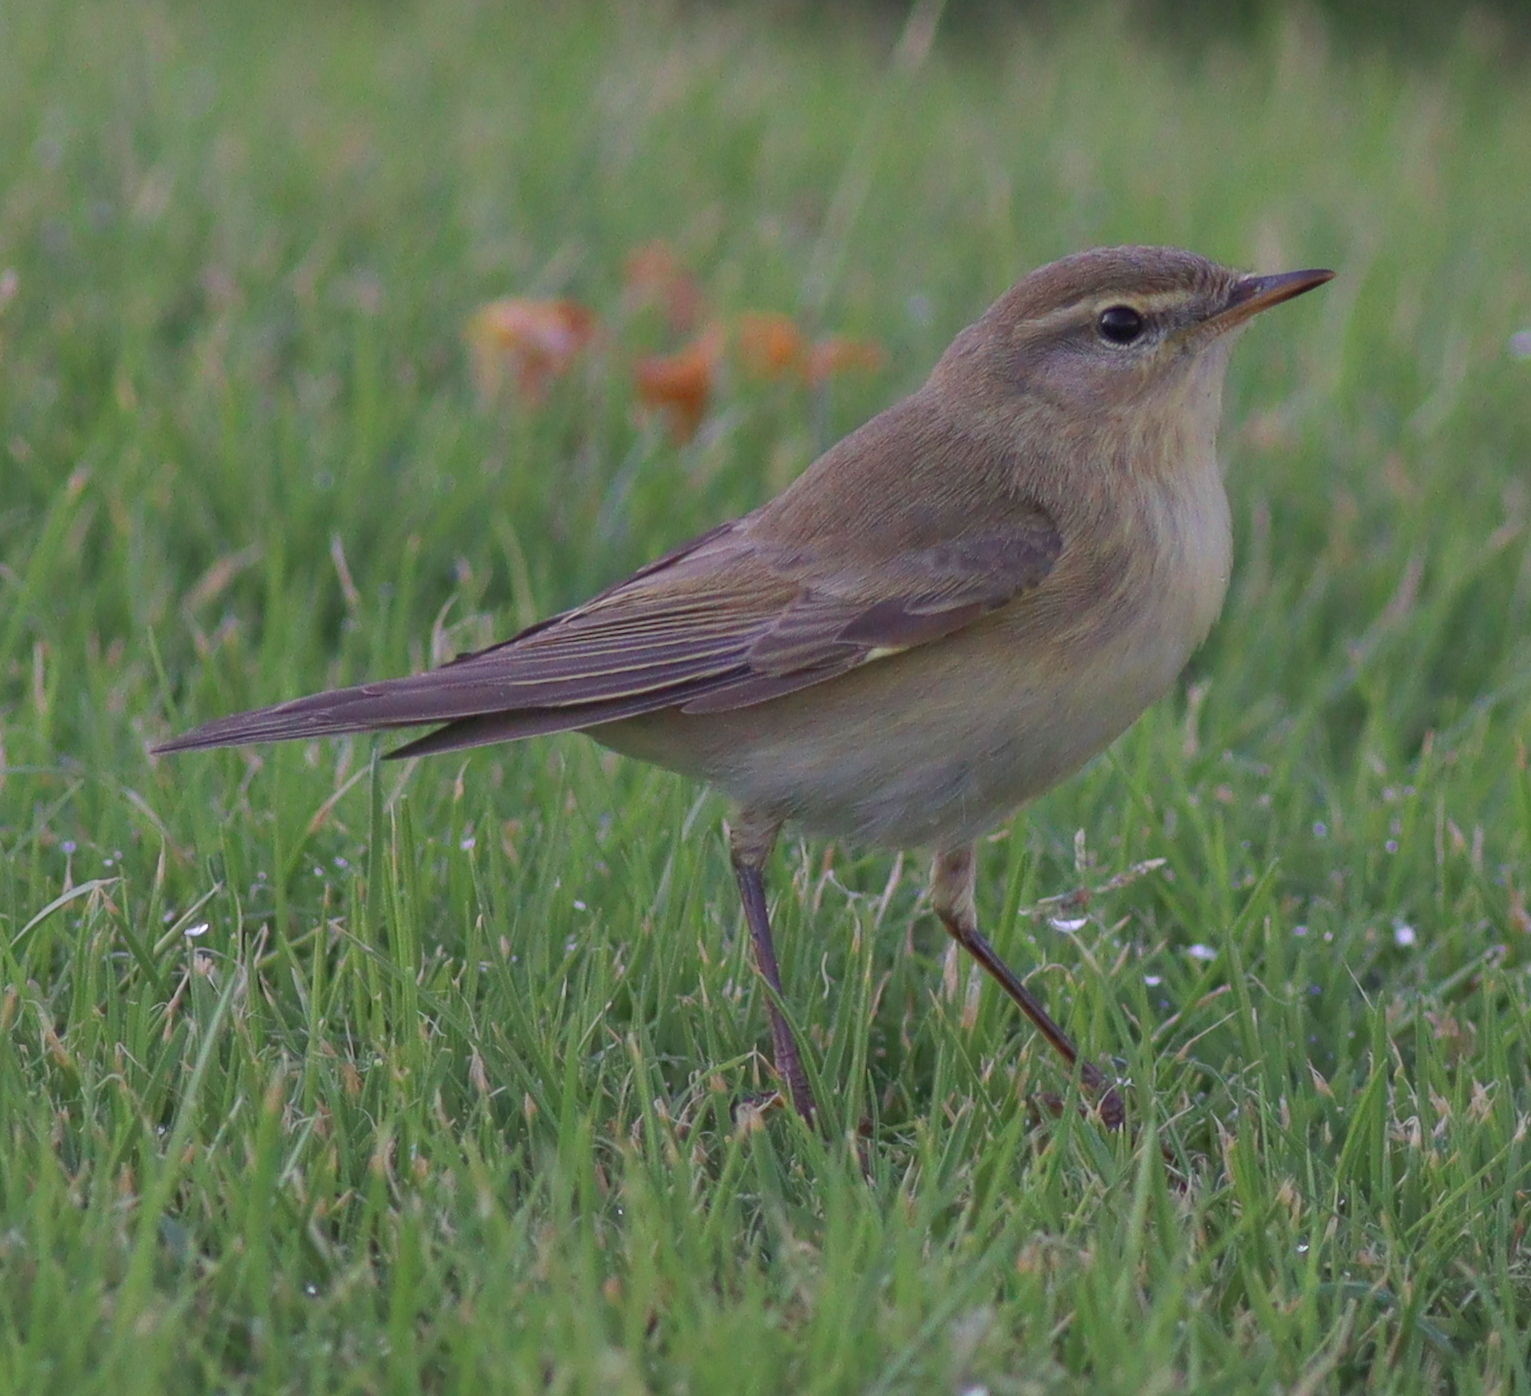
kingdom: Animalia
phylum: Chordata
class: Aves
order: Passeriformes
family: Phylloscopidae
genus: Phylloscopus
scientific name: Phylloscopus trochilus
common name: Willow warbler
